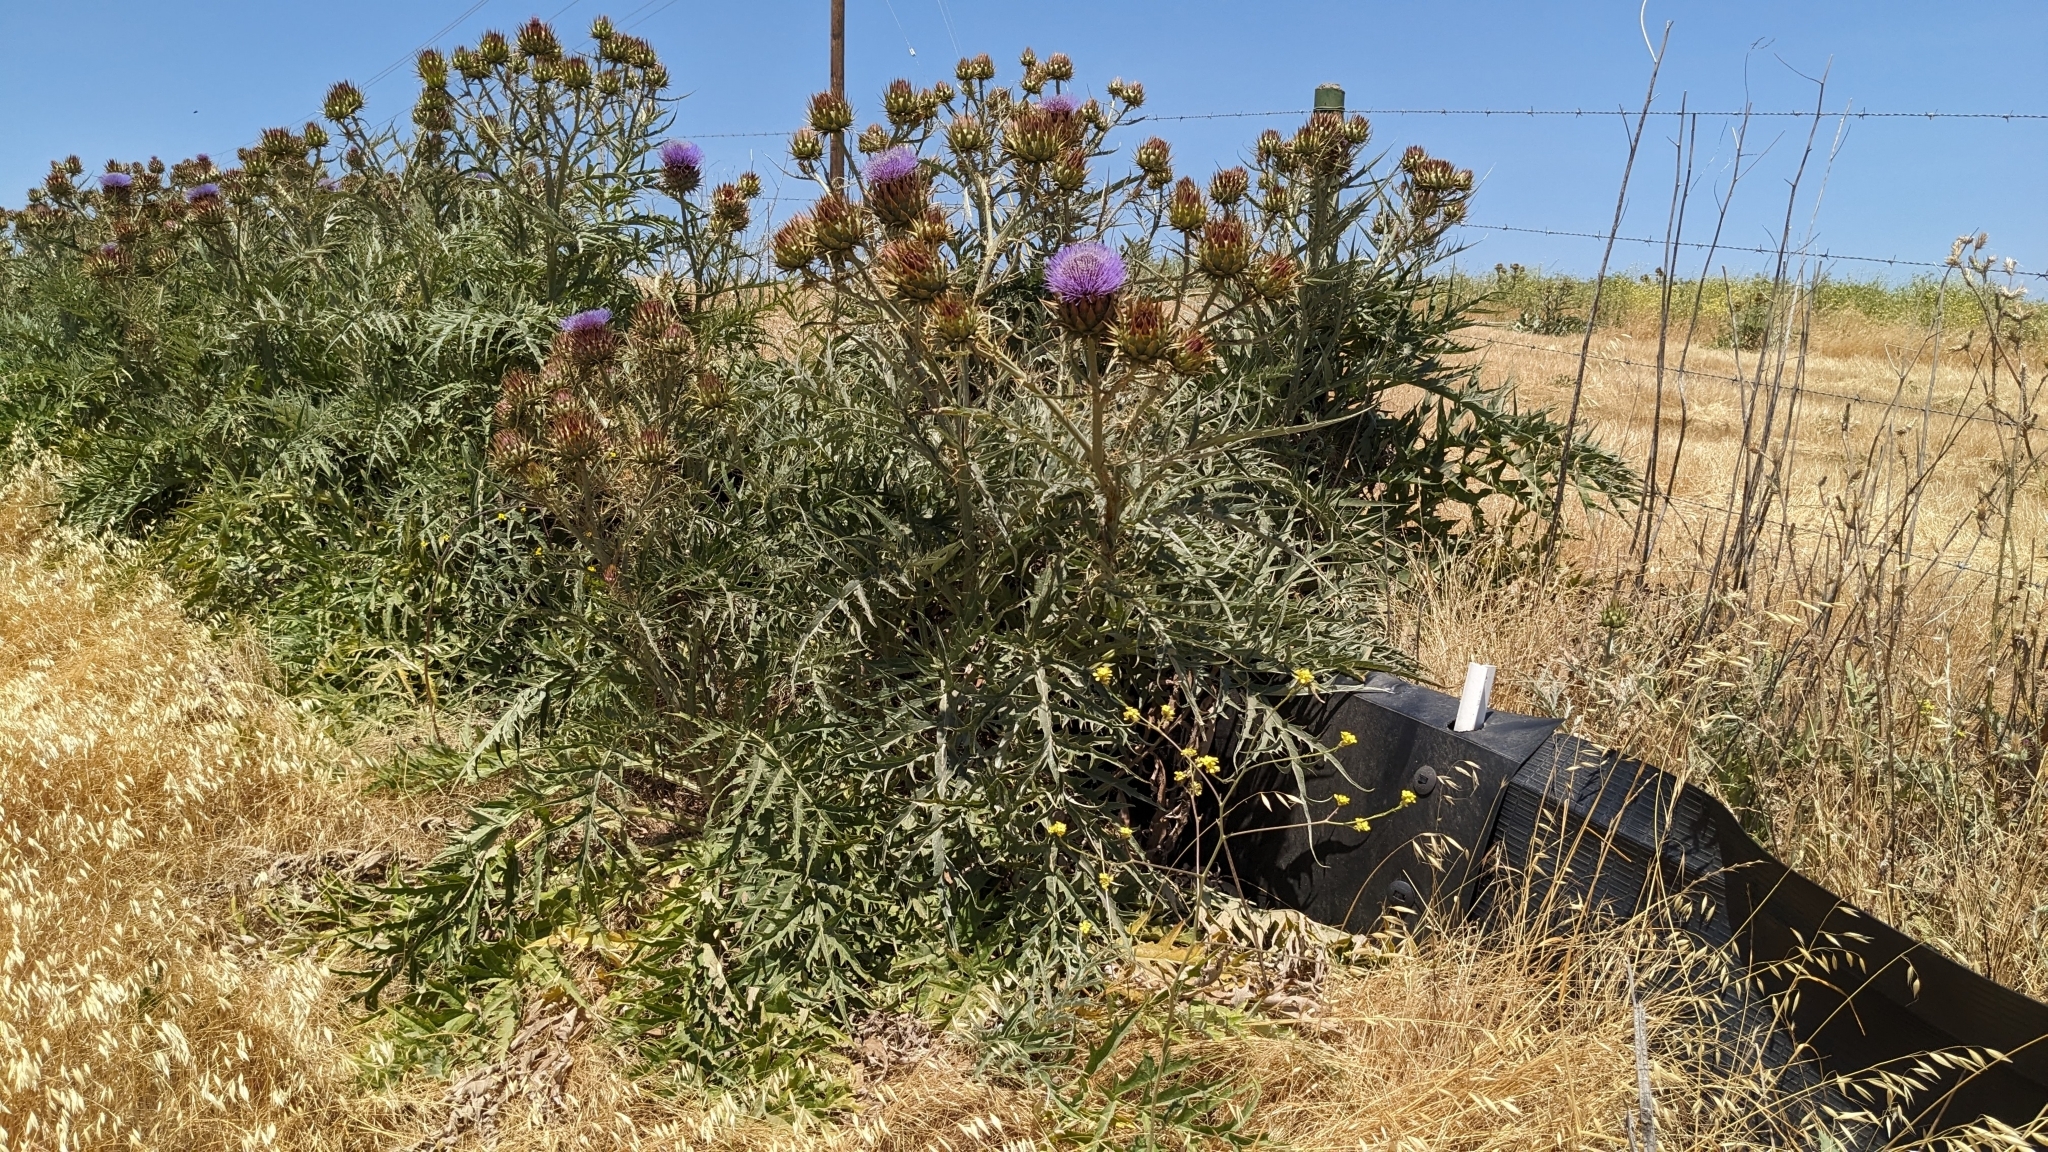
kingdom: Plantae
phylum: Tracheophyta
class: Magnoliopsida
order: Asterales
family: Asteraceae
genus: Cynara
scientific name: Cynara cardunculus
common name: Globe artichoke
